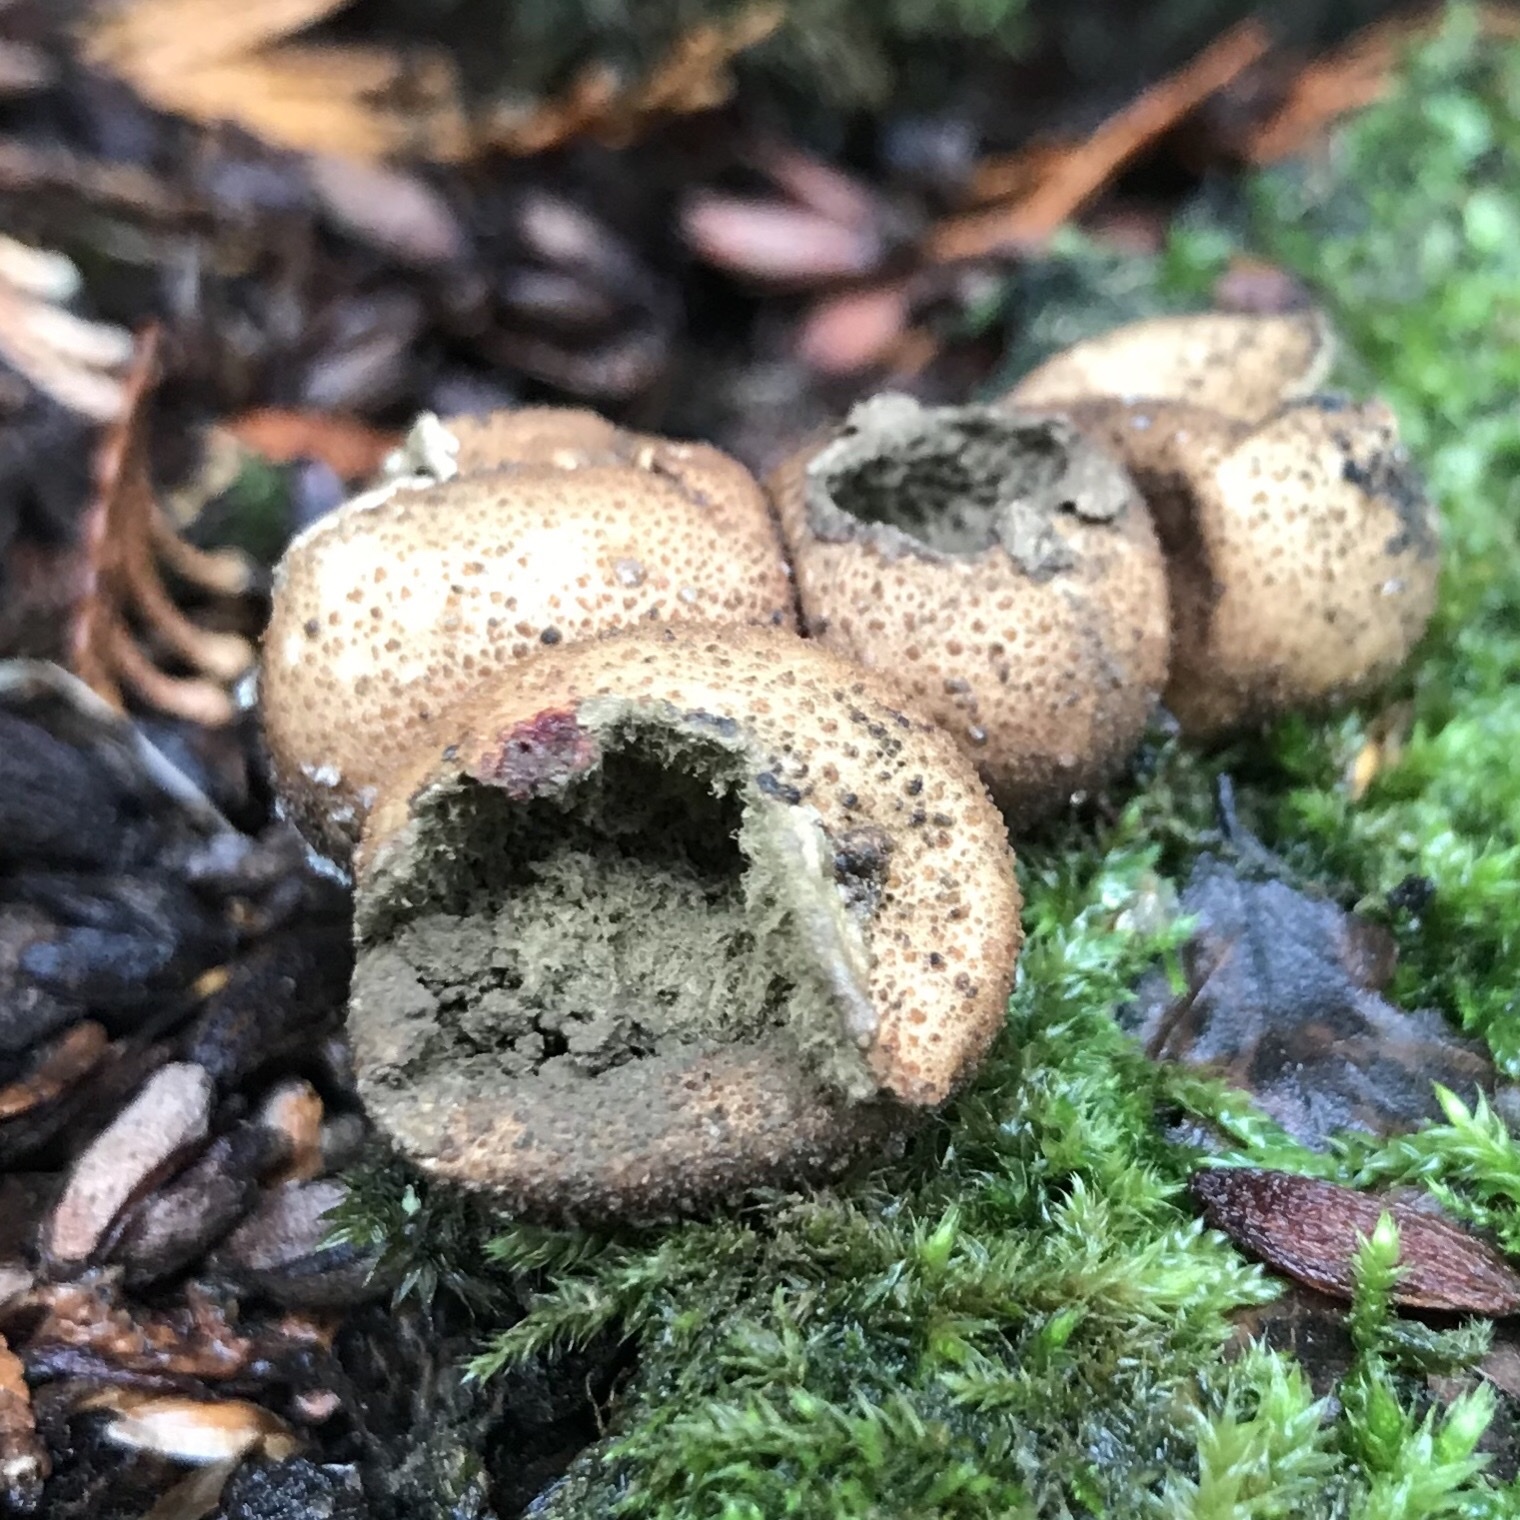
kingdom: Fungi
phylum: Basidiomycota
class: Agaricomycetes
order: Agaricales
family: Lycoperdaceae
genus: Apioperdon
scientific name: Apioperdon pyriforme
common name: Pear-shaped puffball
